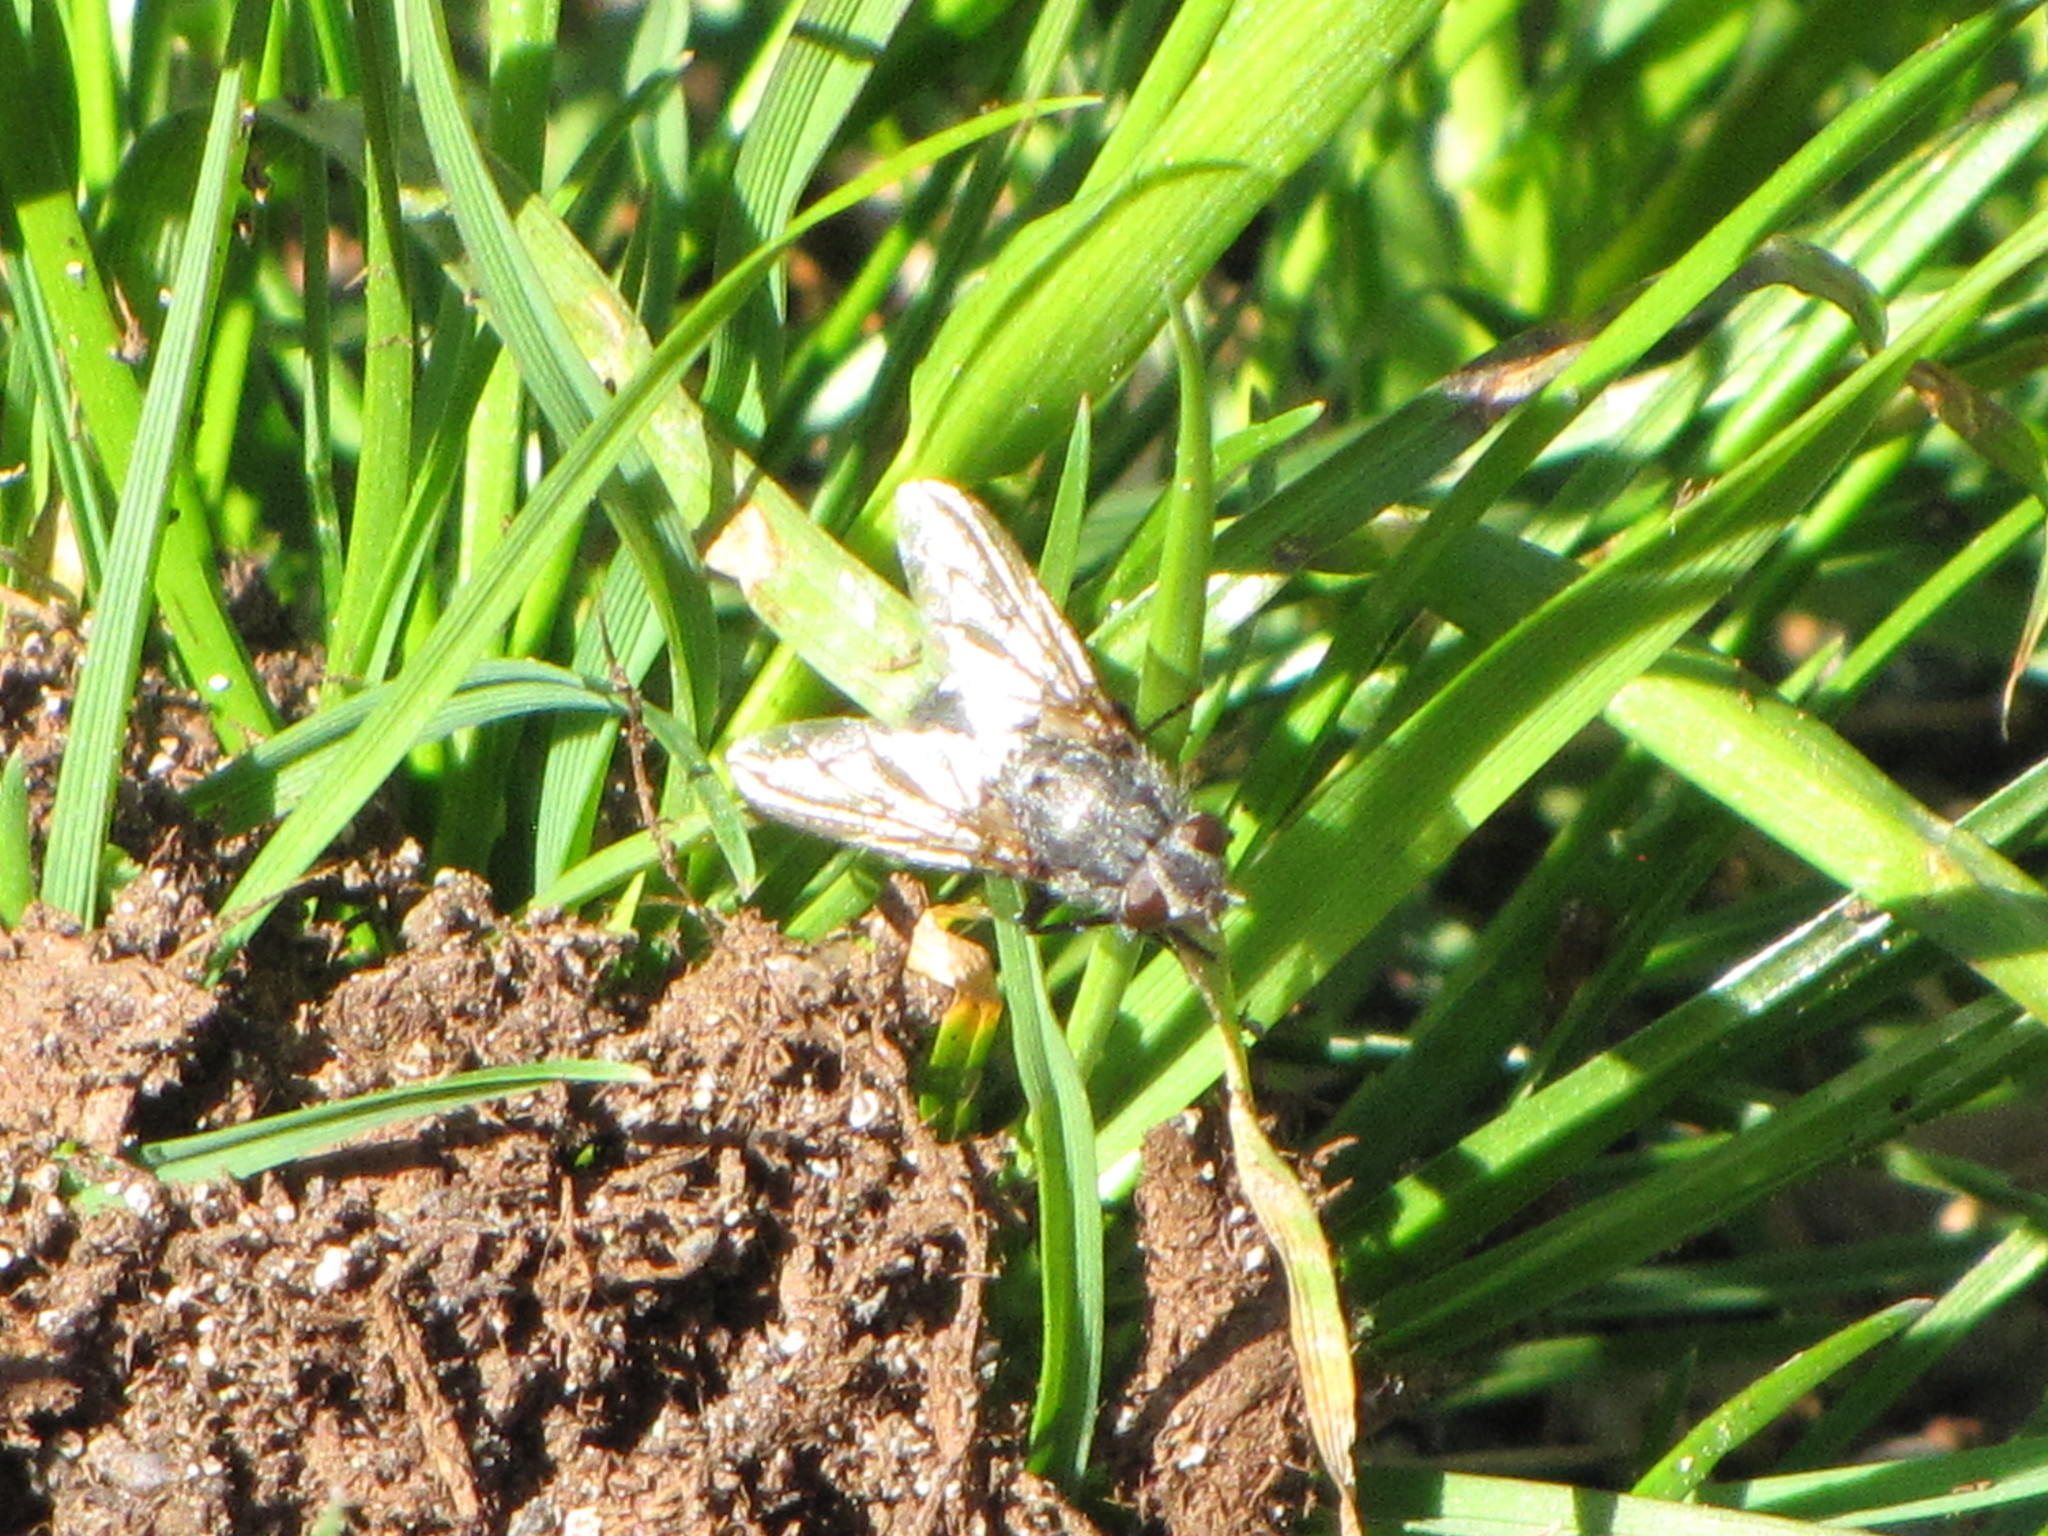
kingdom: Animalia
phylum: Arthropoda
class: Insecta
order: Diptera
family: Polleniidae
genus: Pollenia
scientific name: Pollenia
